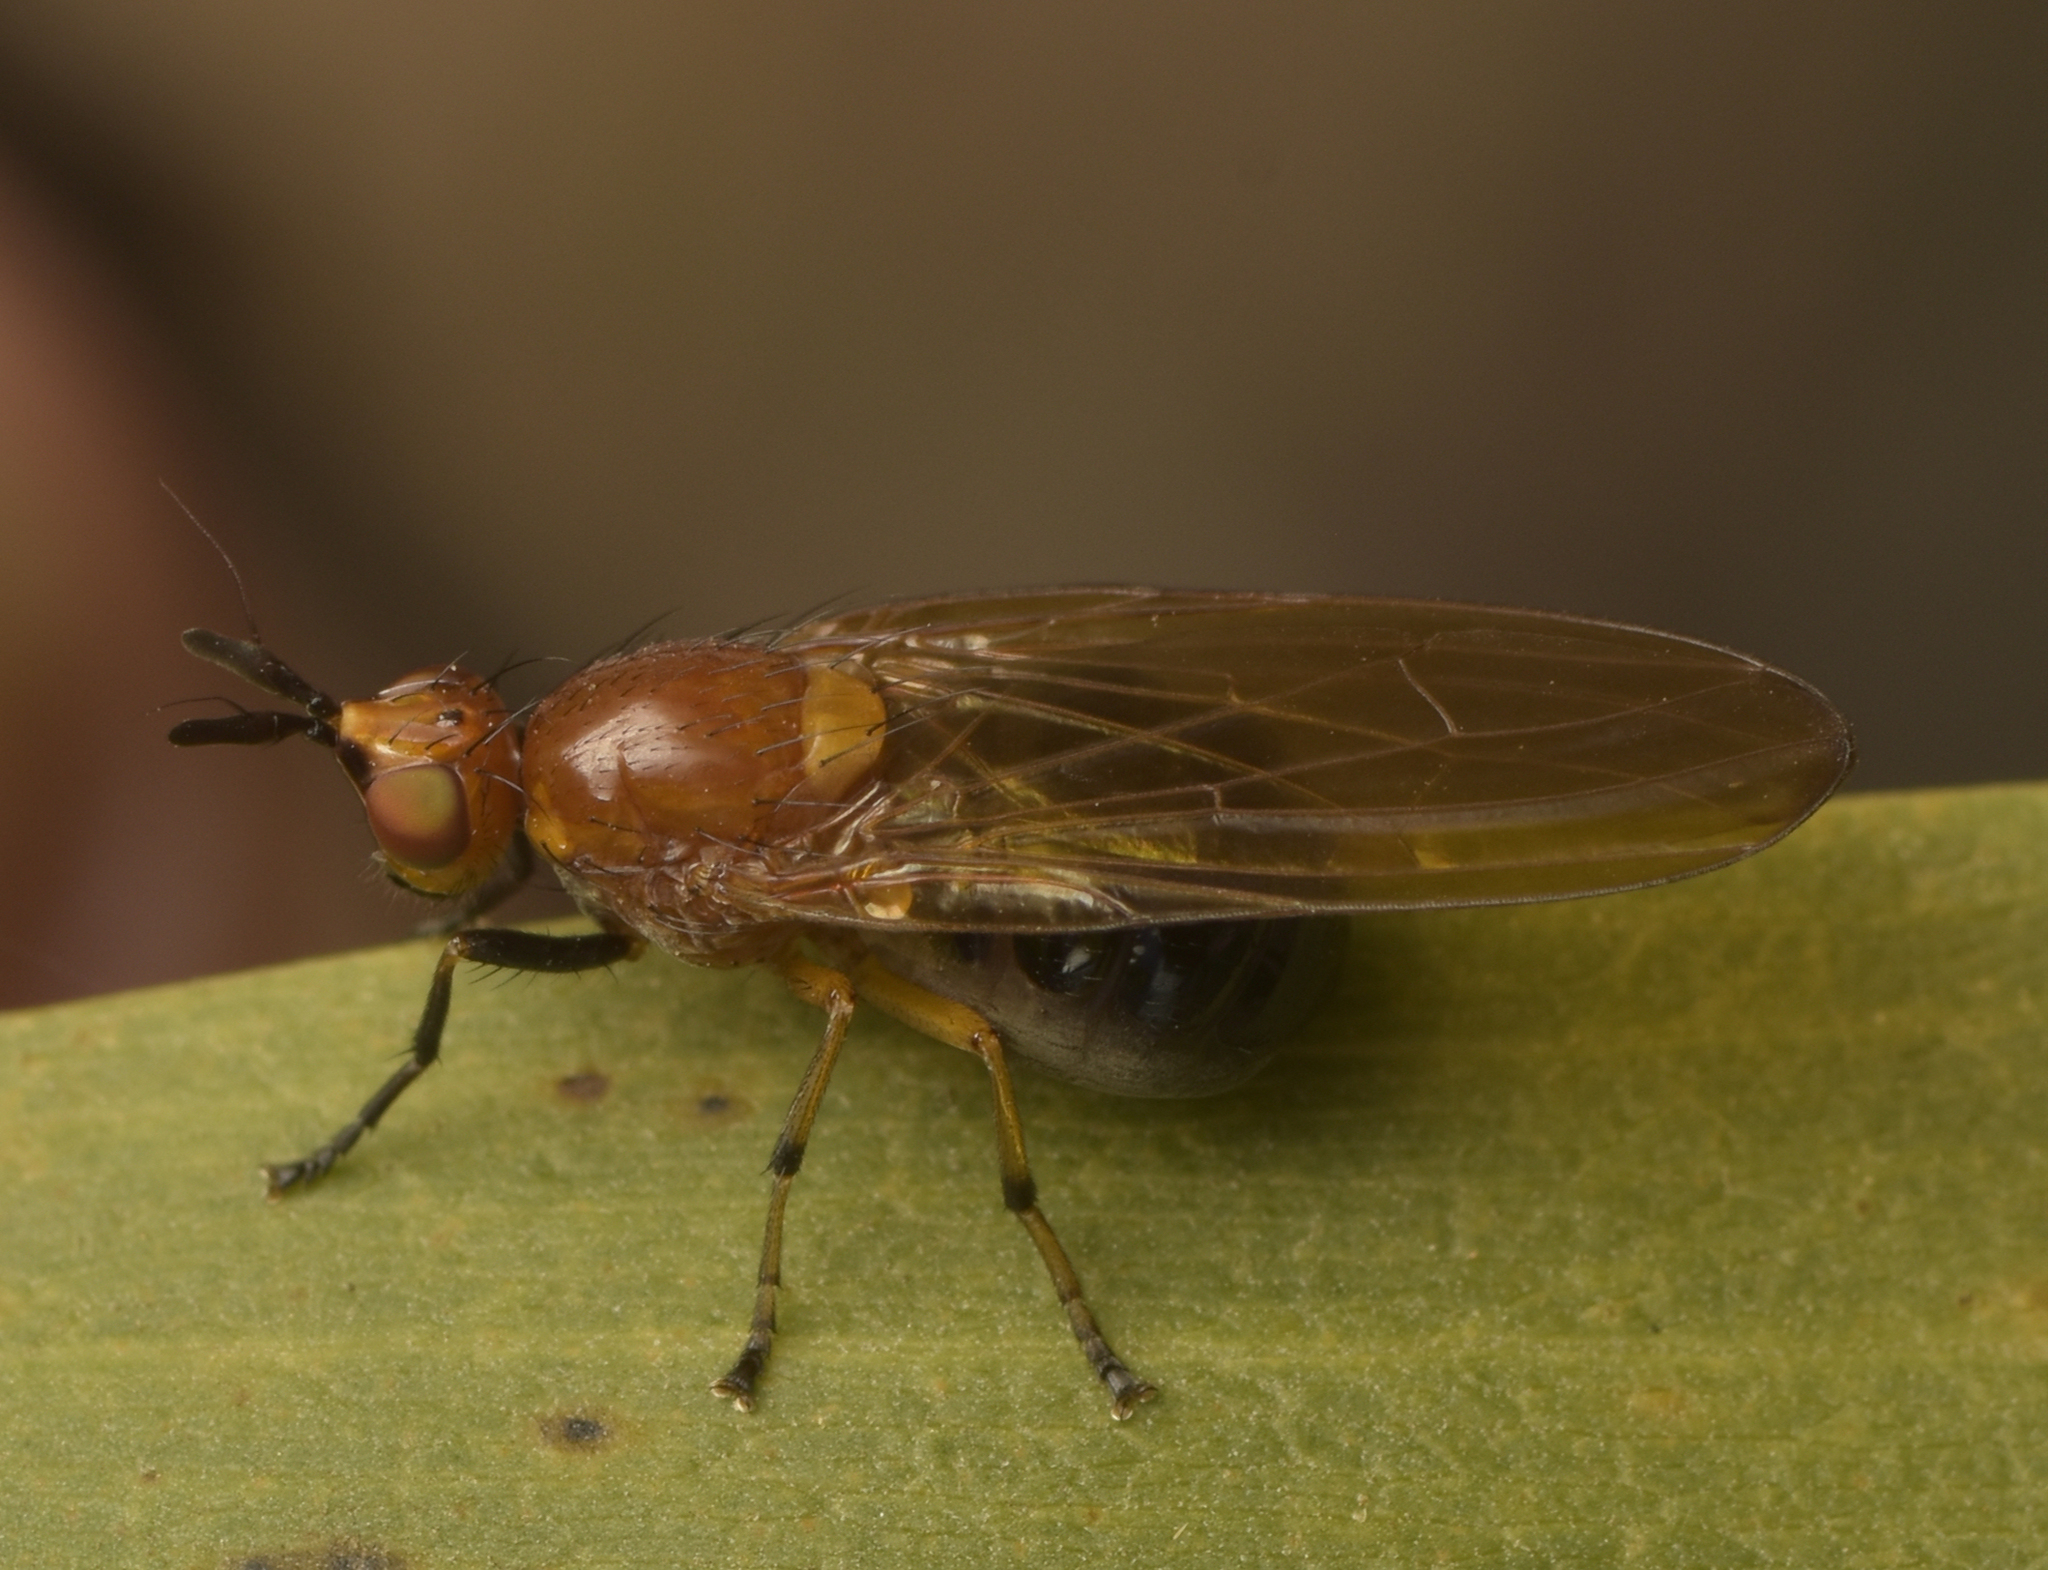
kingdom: Animalia
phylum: Arthropoda
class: Insecta
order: Diptera
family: Lauxaniidae
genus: Rhagadolyra
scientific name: Rhagadolyra magnicornis
